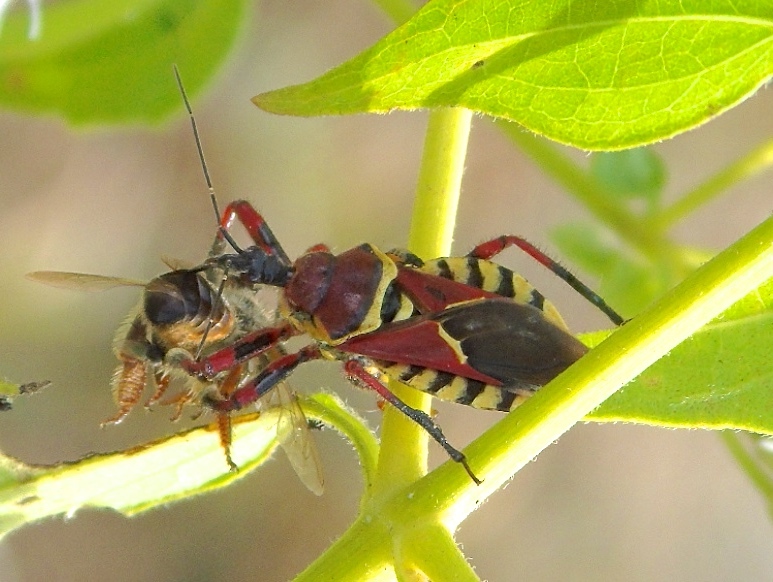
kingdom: Animalia
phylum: Arthropoda
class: Insecta
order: Hemiptera
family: Reduviidae
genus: Apiomerus
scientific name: Apiomerus flaviventris
